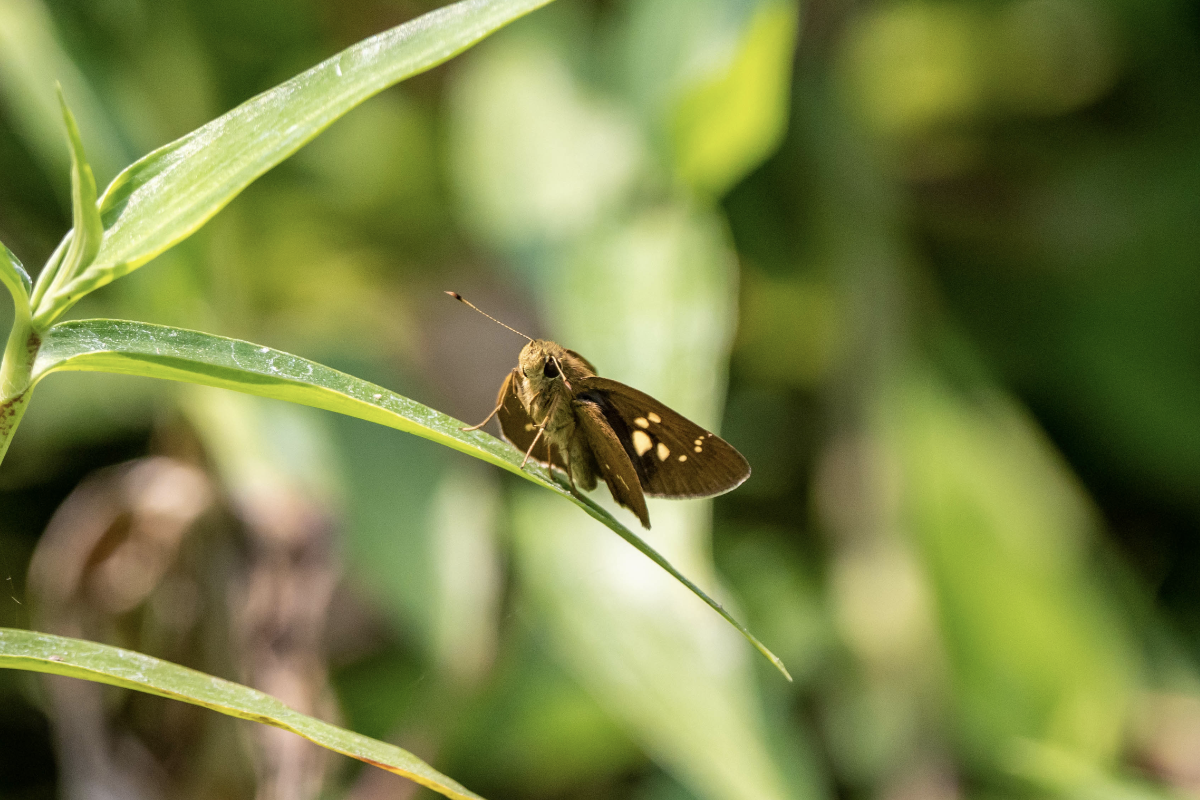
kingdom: Animalia
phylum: Arthropoda
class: Insecta
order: Lepidoptera
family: Hesperiidae
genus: Polytremis
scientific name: Polytremis lubricans
